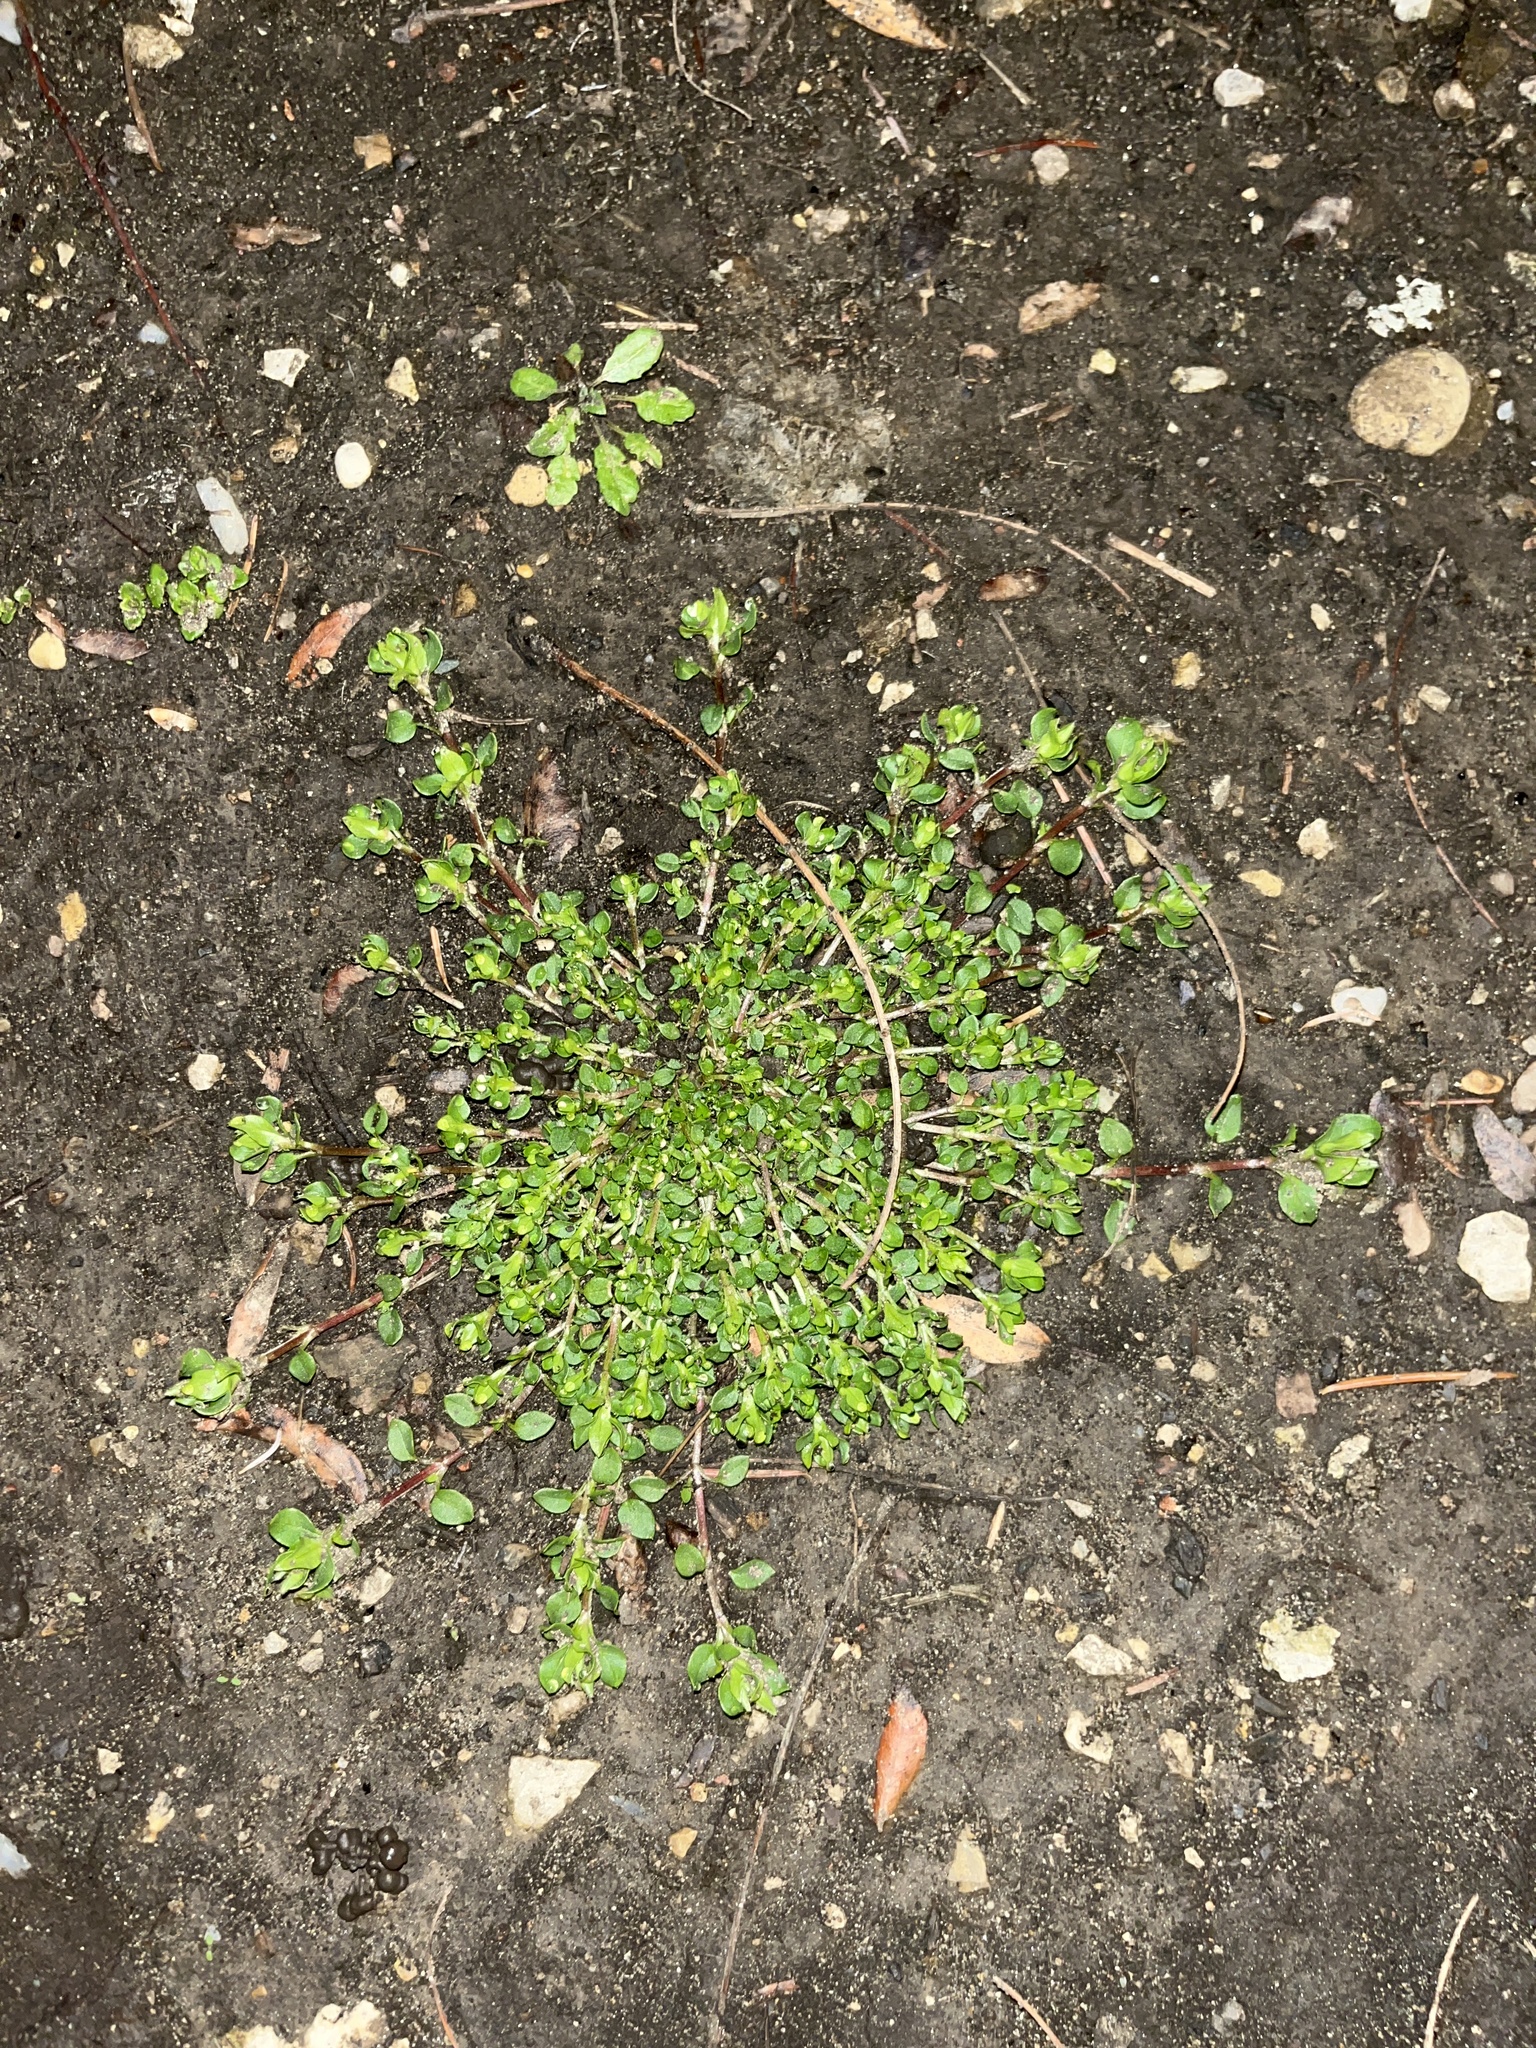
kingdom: Plantae
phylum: Tracheophyta
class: Magnoliopsida
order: Caryophyllales
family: Caryophyllaceae
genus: Stellaria
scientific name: Stellaria media
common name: Common chickweed
